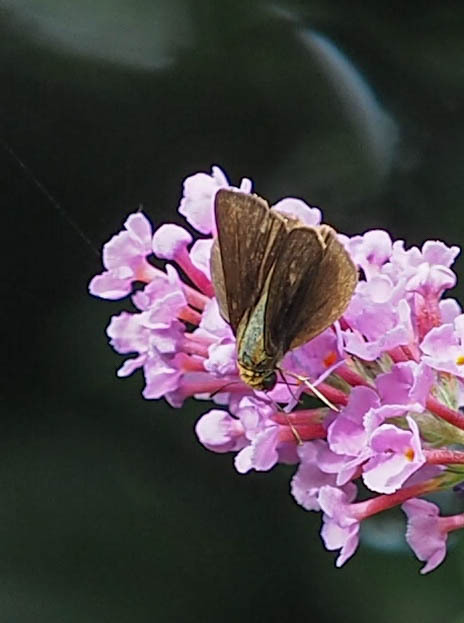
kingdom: Animalia
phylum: Arthropoda
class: Insecta
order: Lepidoptera
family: Hesperiidae
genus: Euphyes
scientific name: Euphyes vestris
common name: Dun skipper
